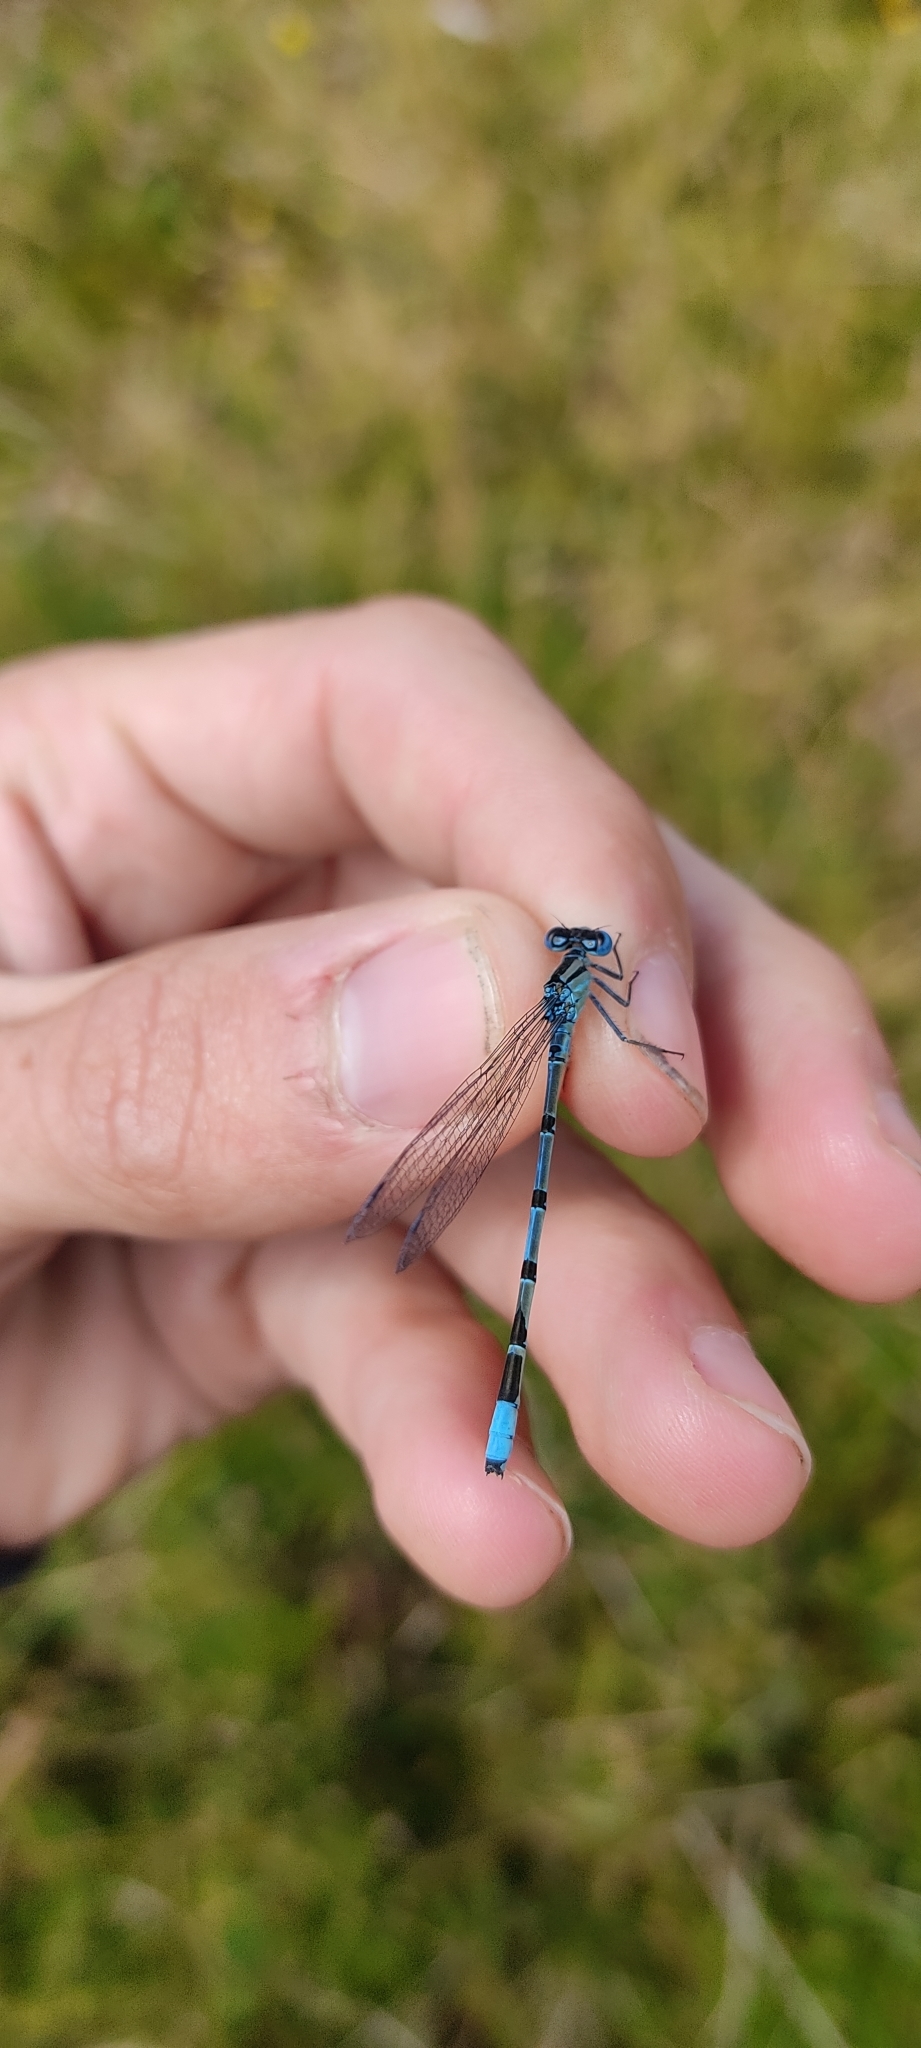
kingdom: Animalia
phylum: Arthropoda
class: Insecta
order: Odonata
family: Coenagrionidae
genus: Enallagma
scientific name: Enallagma cyathigerum
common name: Common blue damselfly
